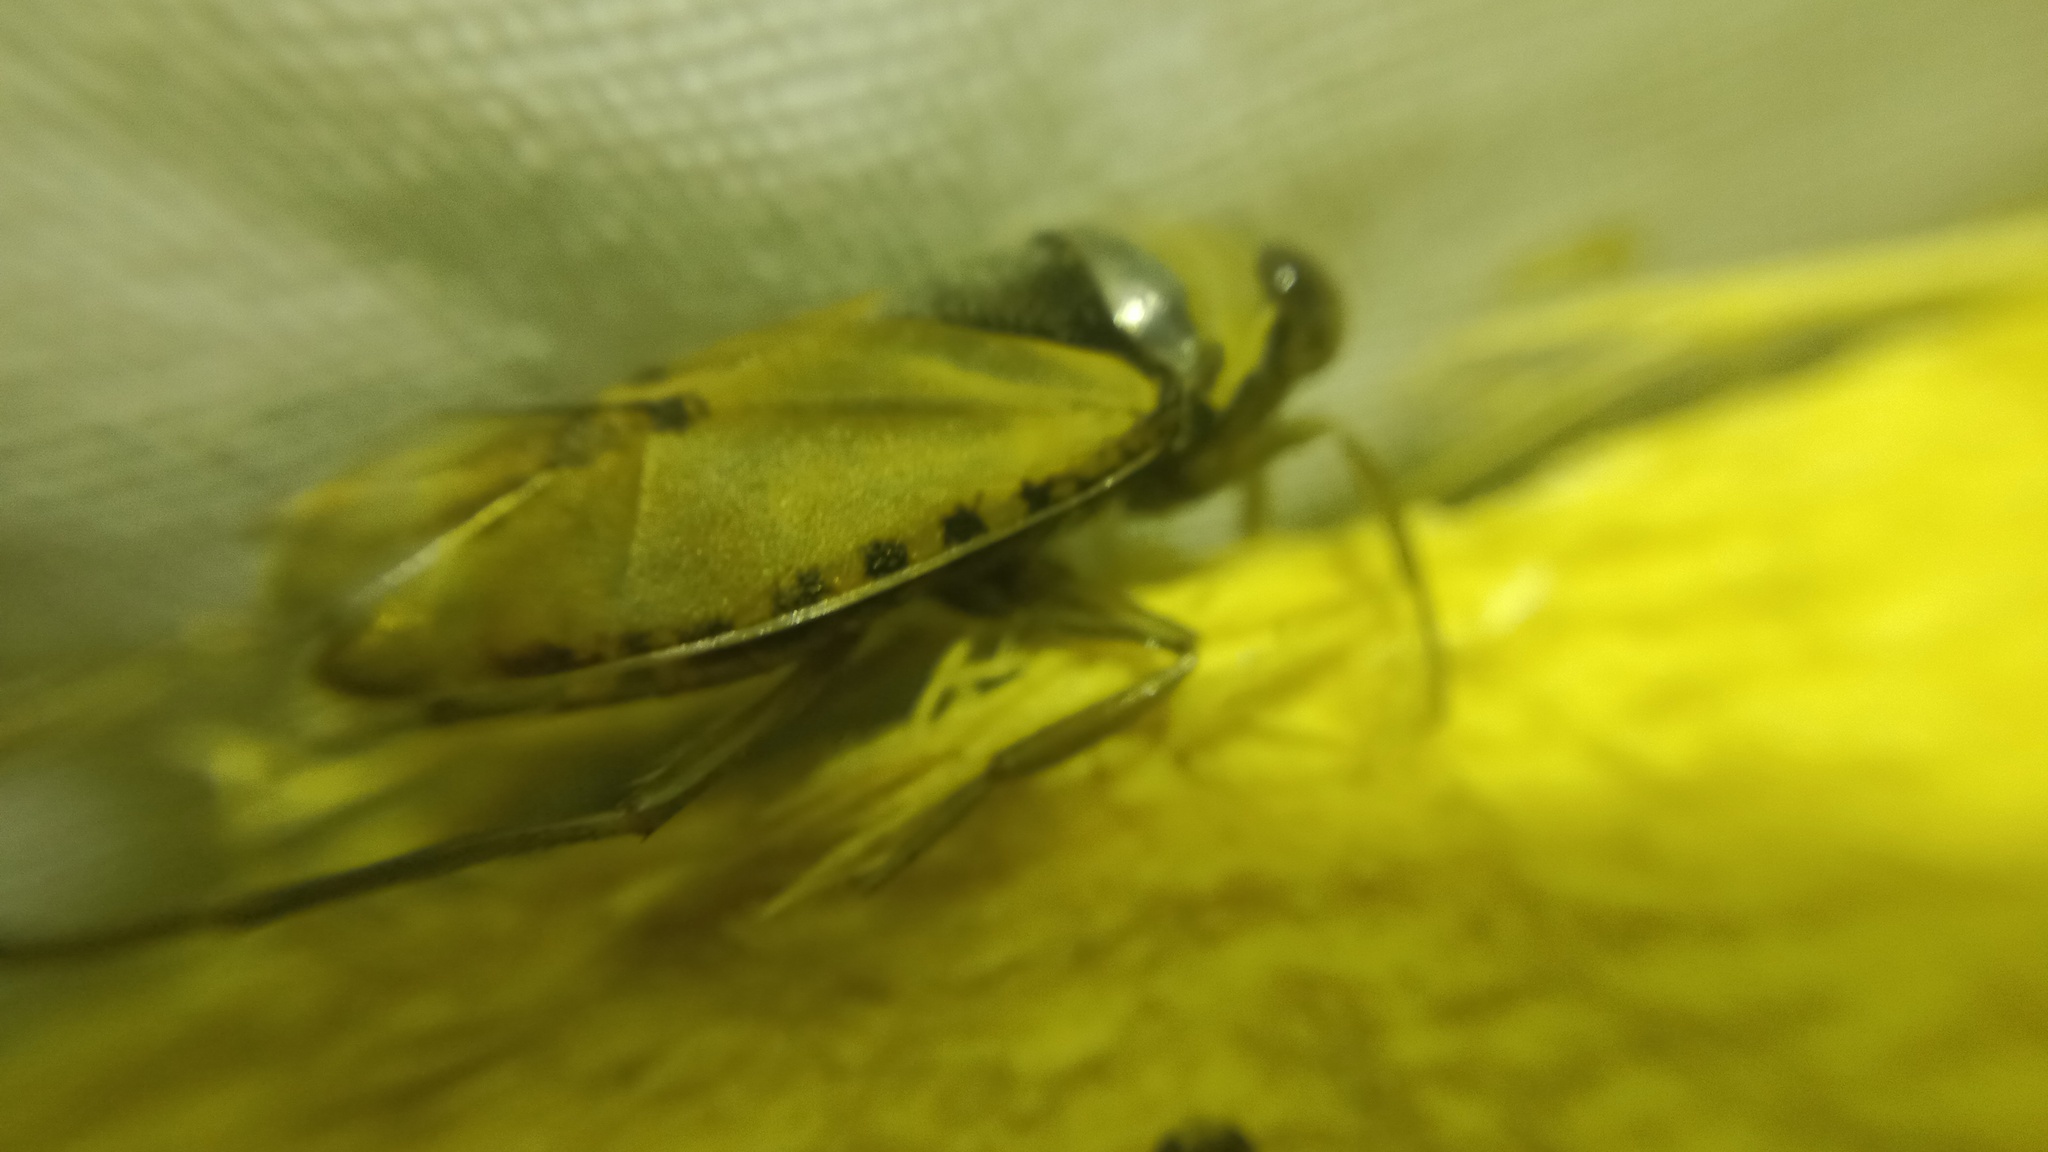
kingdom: Animalia
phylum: Arthropoda
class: Insecta
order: Hemiptera
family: Notonectidae
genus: Notonecta
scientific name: Notonecta glauca
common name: Common water-boatman
